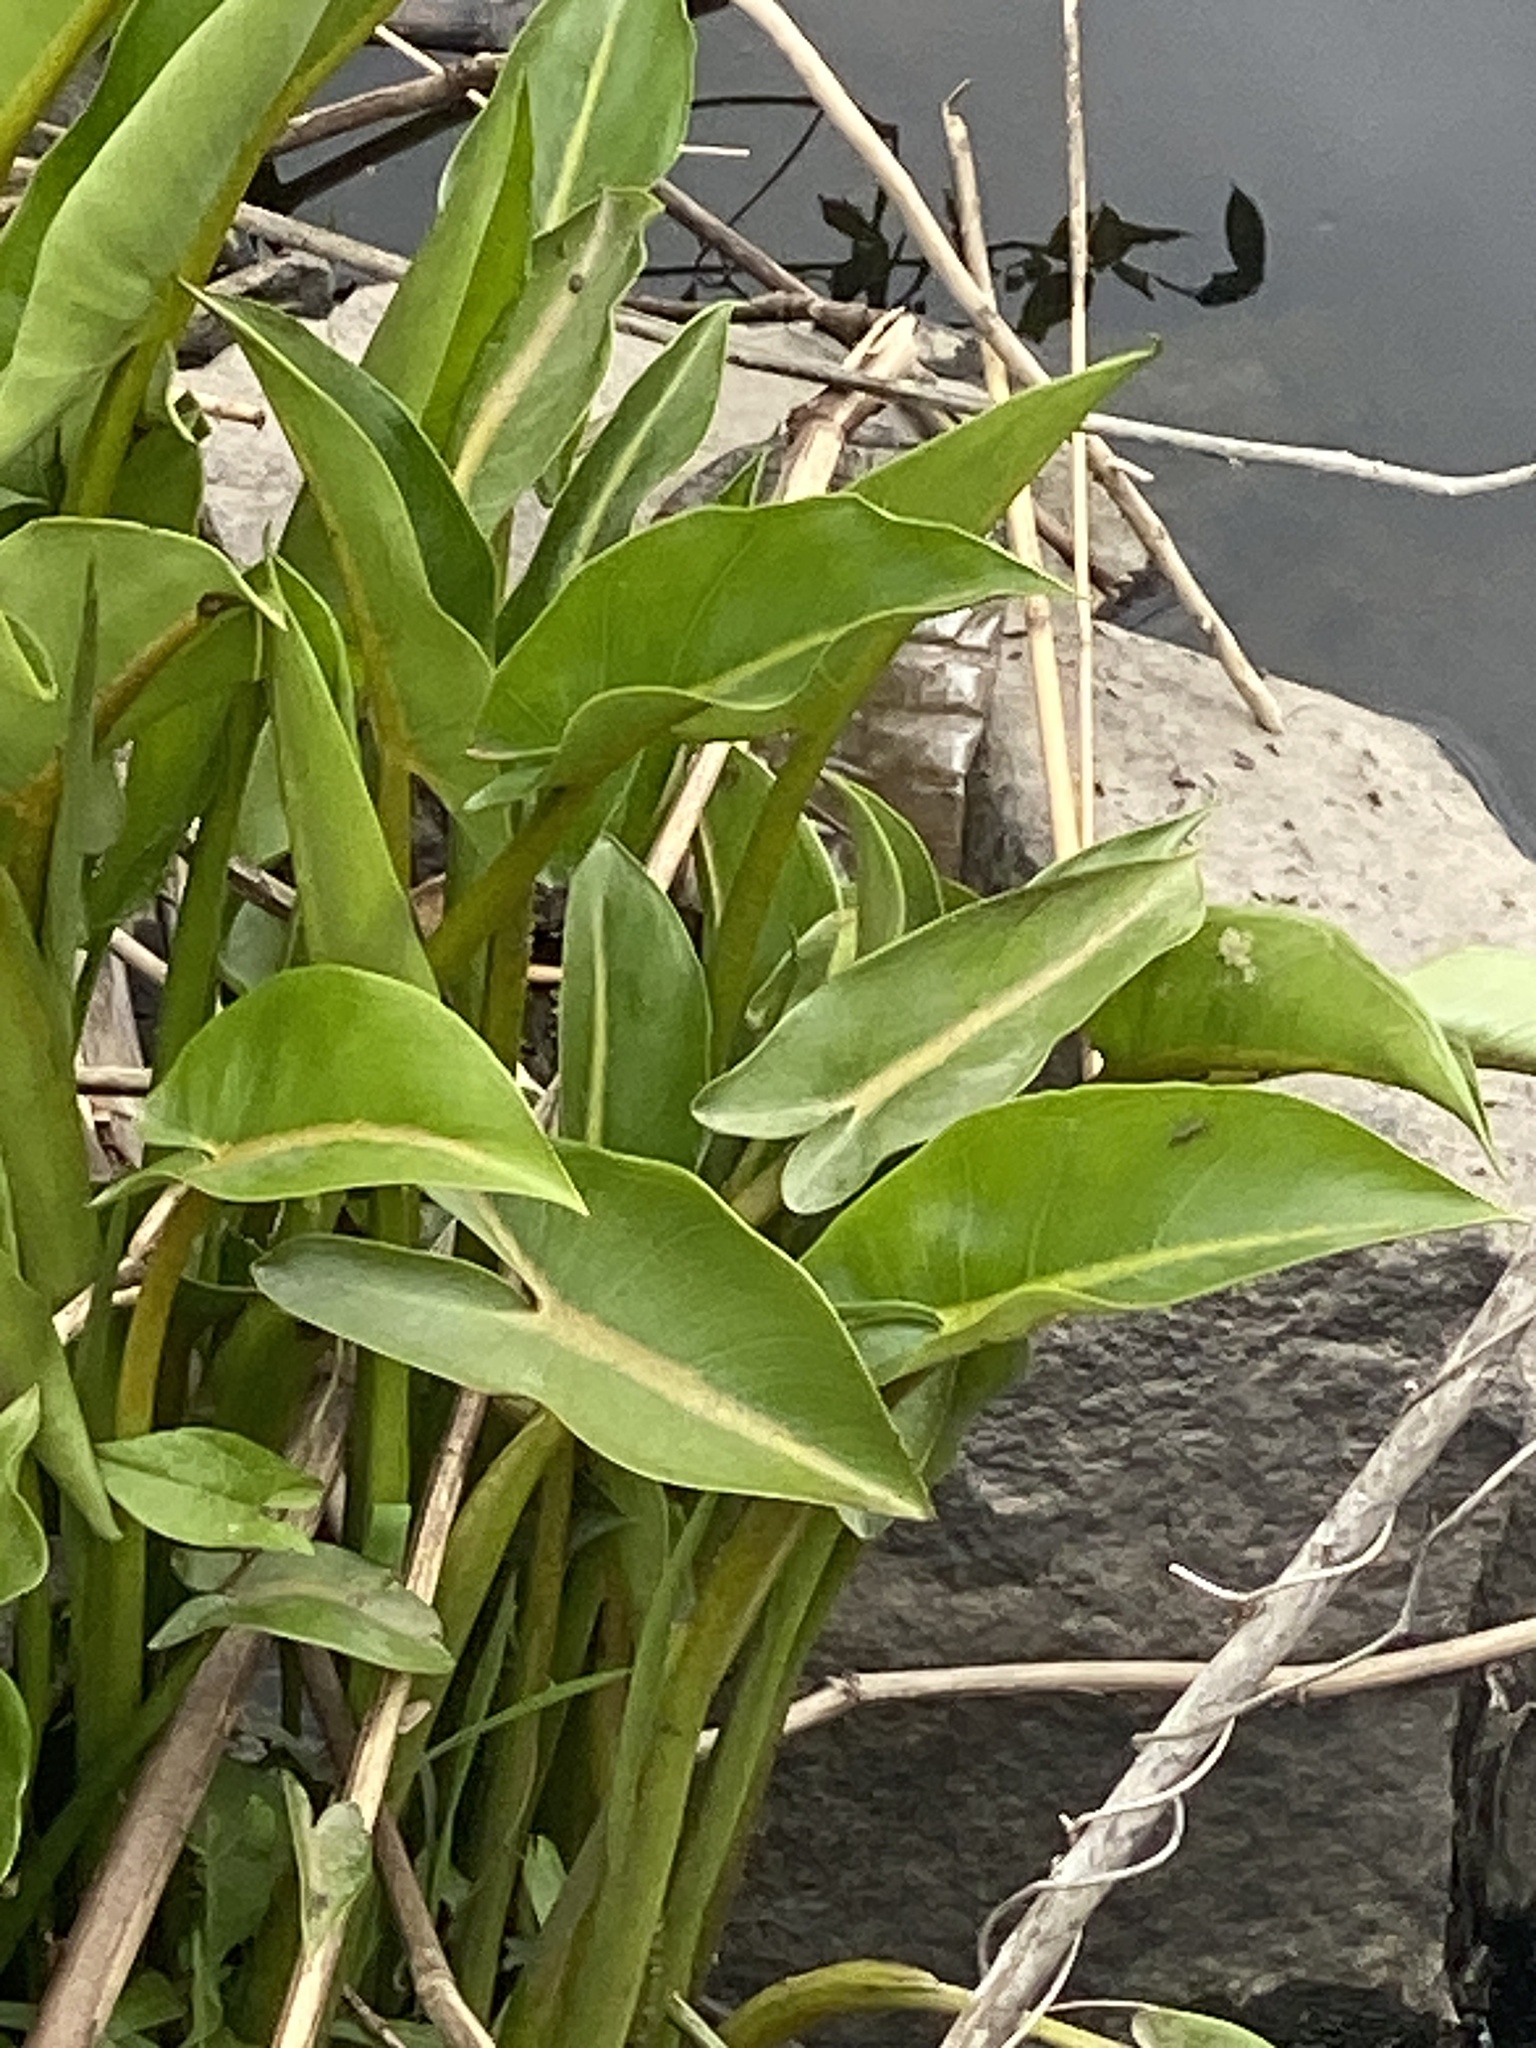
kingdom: Plantae
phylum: Tracheophyta
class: Liliopsida
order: Alismatales
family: Araceae
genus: Peltandra
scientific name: Peltandra virginica
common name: Arrow arum
